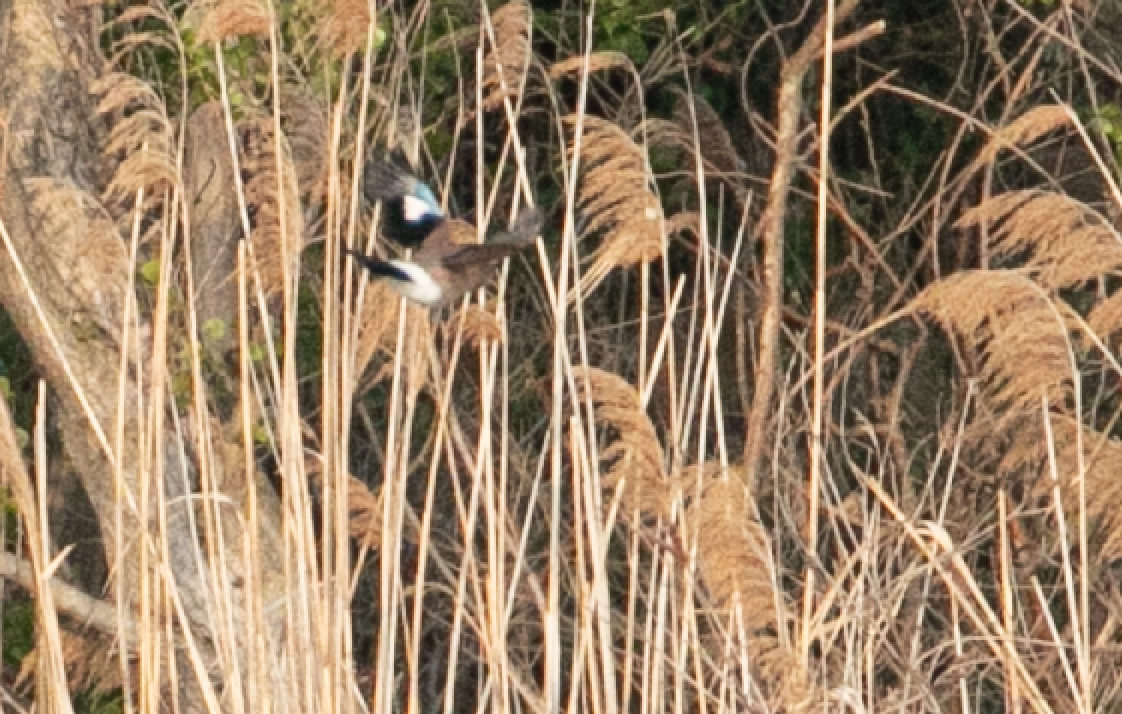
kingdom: Animalia
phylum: Chordata
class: Aves
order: Passeriformes
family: Corvidae
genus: Garrulus
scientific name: Garrulus glandarius
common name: Eurasian jay
